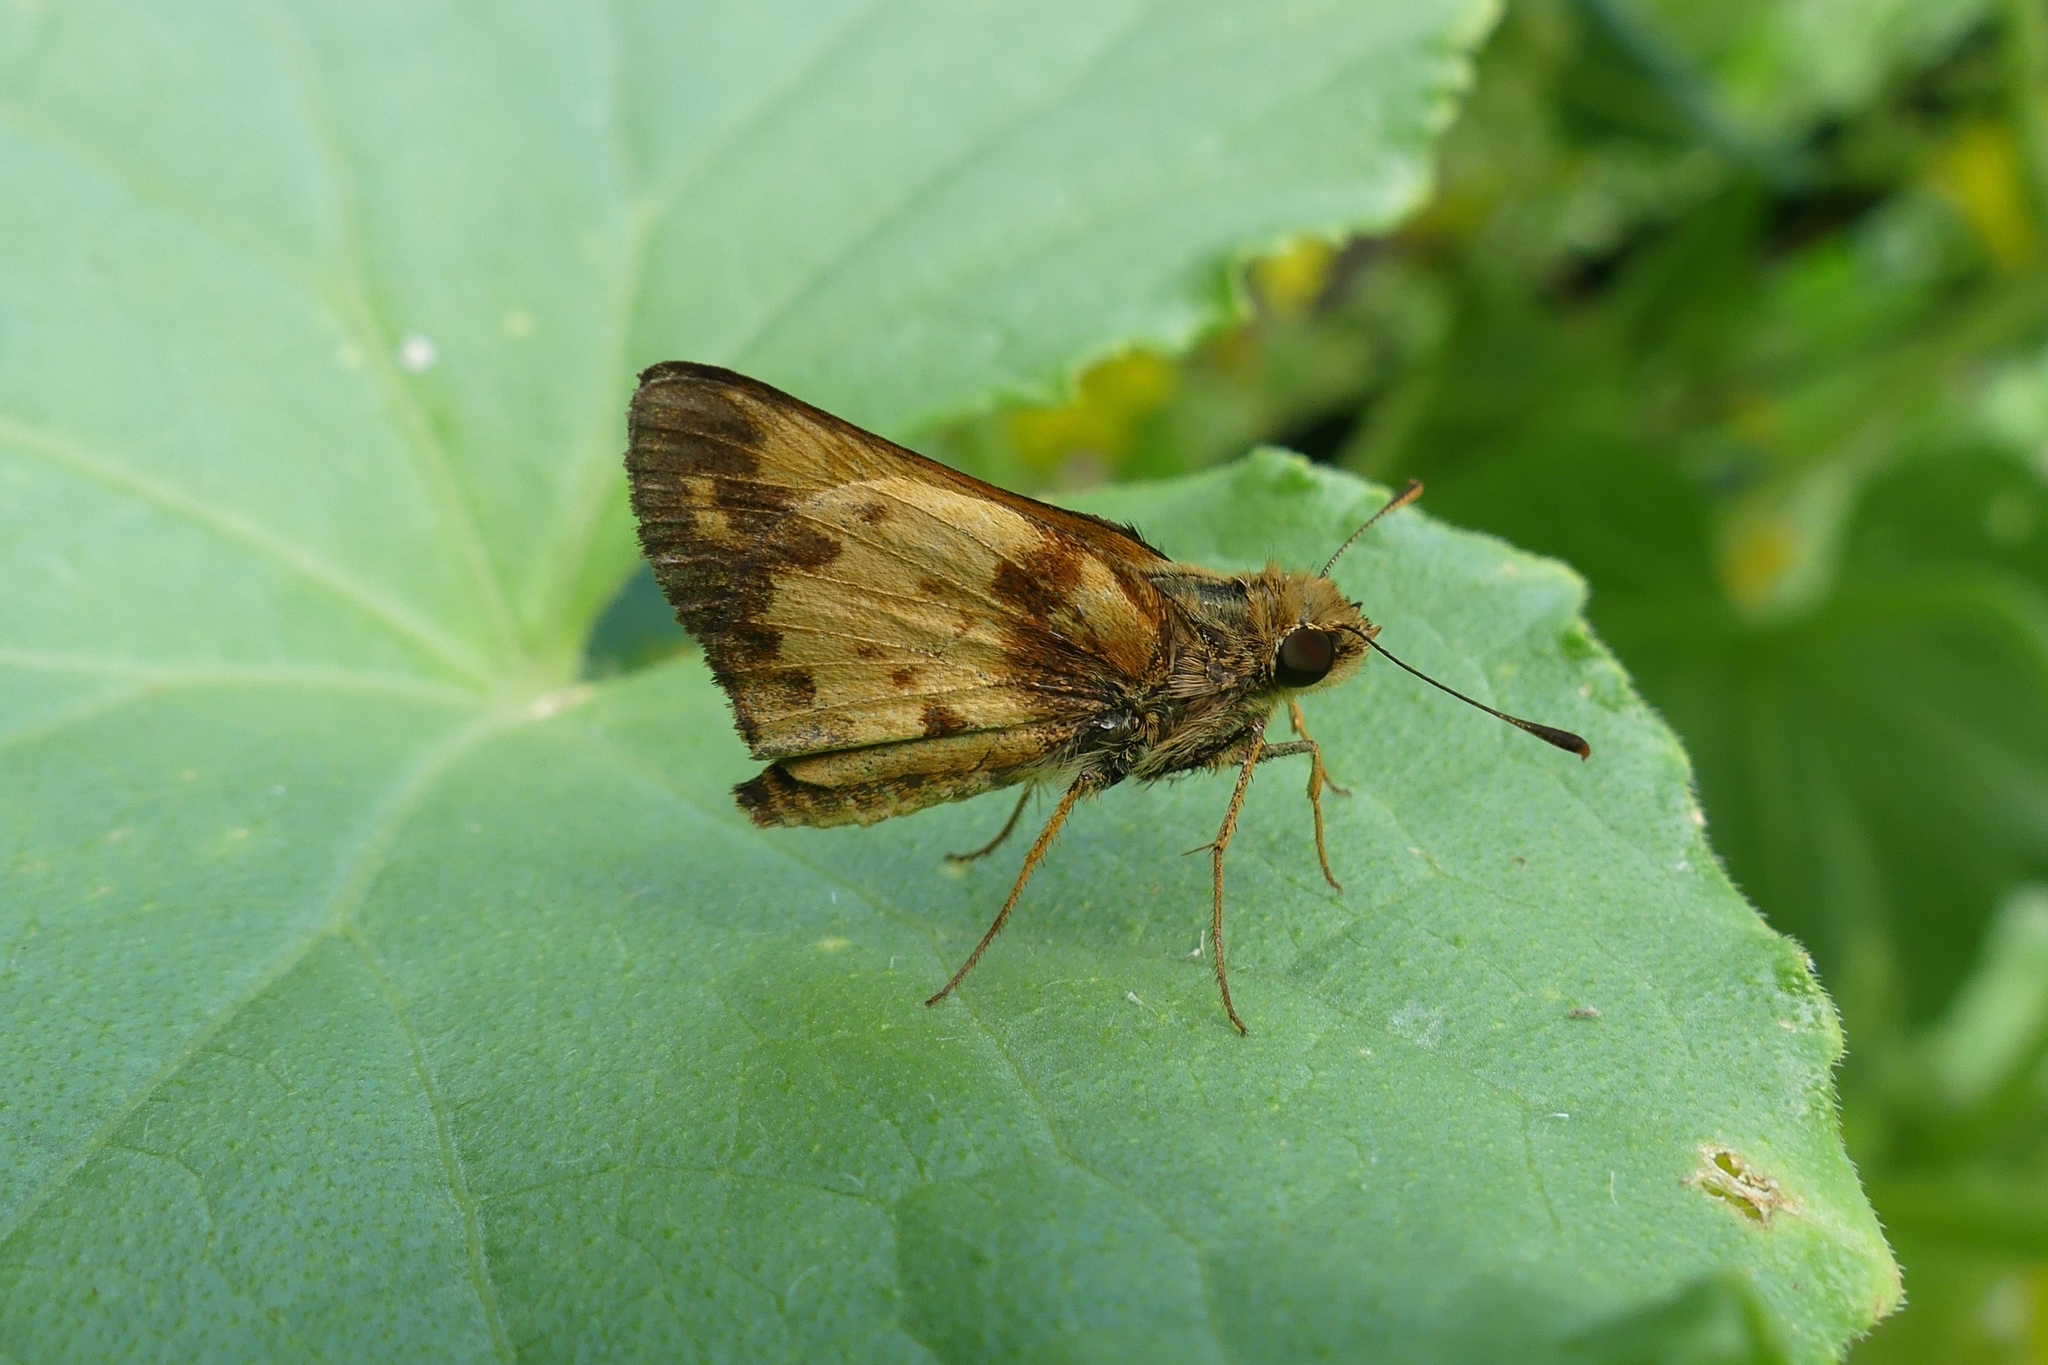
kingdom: Animalia
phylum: Arthropoda
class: Insecta
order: Lepidoptera
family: Hesperiidae
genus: Lon
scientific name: Lon zabulon
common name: Zabulon skipper
